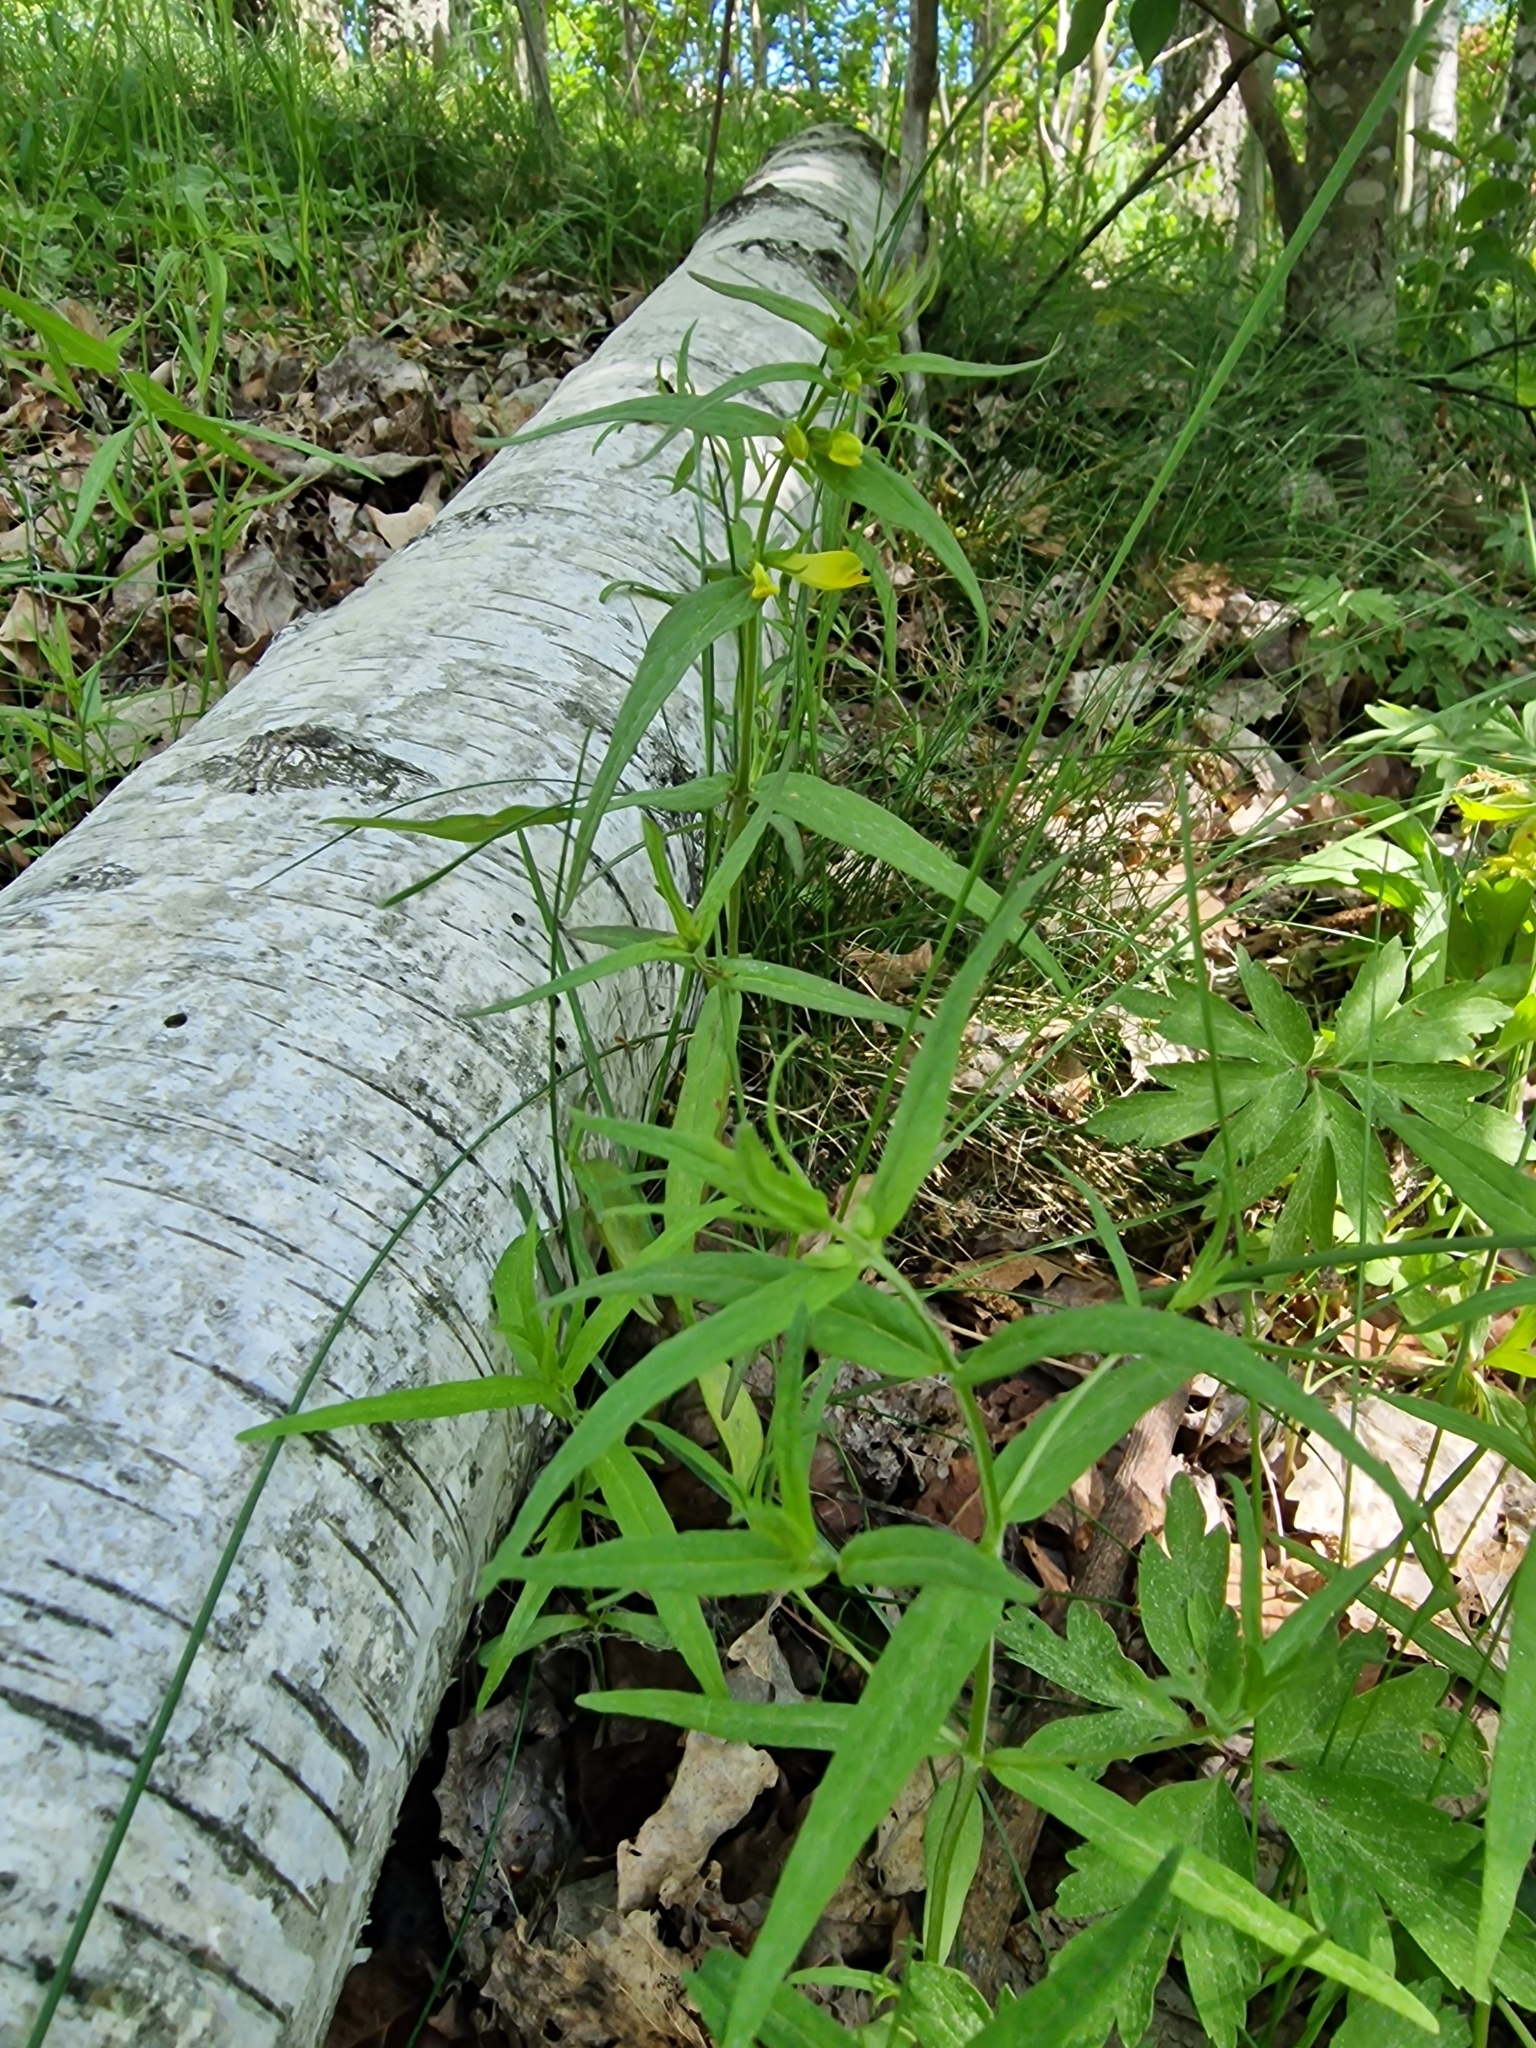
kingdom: Plantae
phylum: Tracheophyta
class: Magnoliopsida
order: Lamiales
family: Orobanchaceae
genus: Melampyrum
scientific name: Melampyrum pratense
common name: Common cow-wheat
